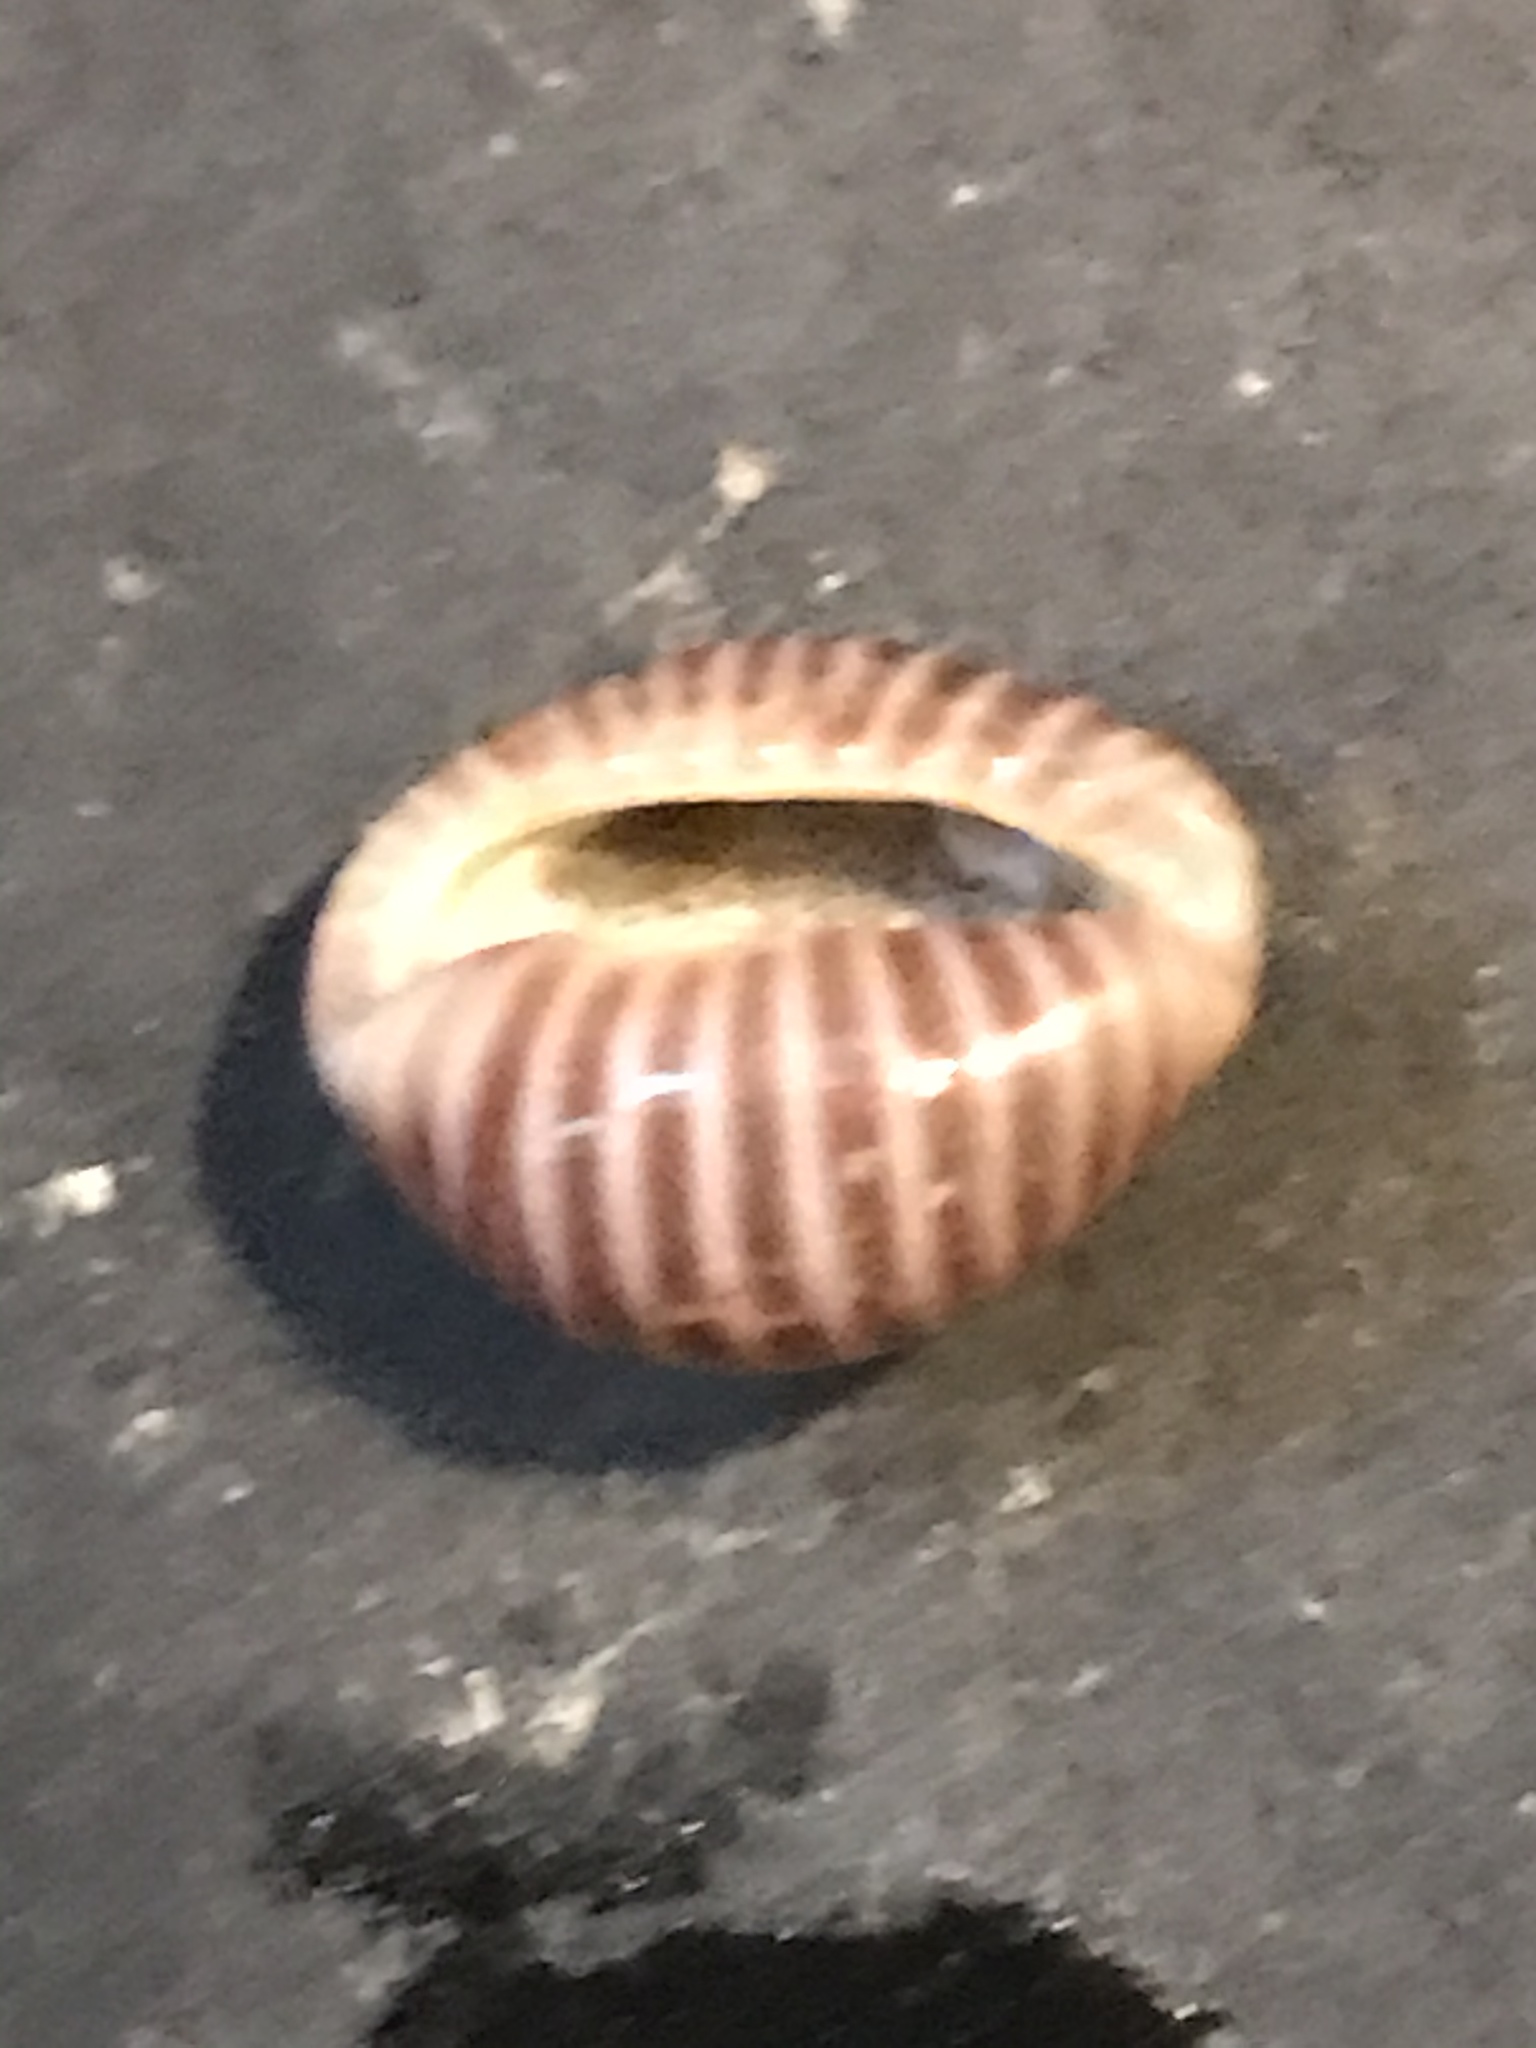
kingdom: Animalia
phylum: Mollusca
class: Gastropoda
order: Littorinimorpha
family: Triviidae
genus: Pseudopusula
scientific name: Pseudopusula californiana
